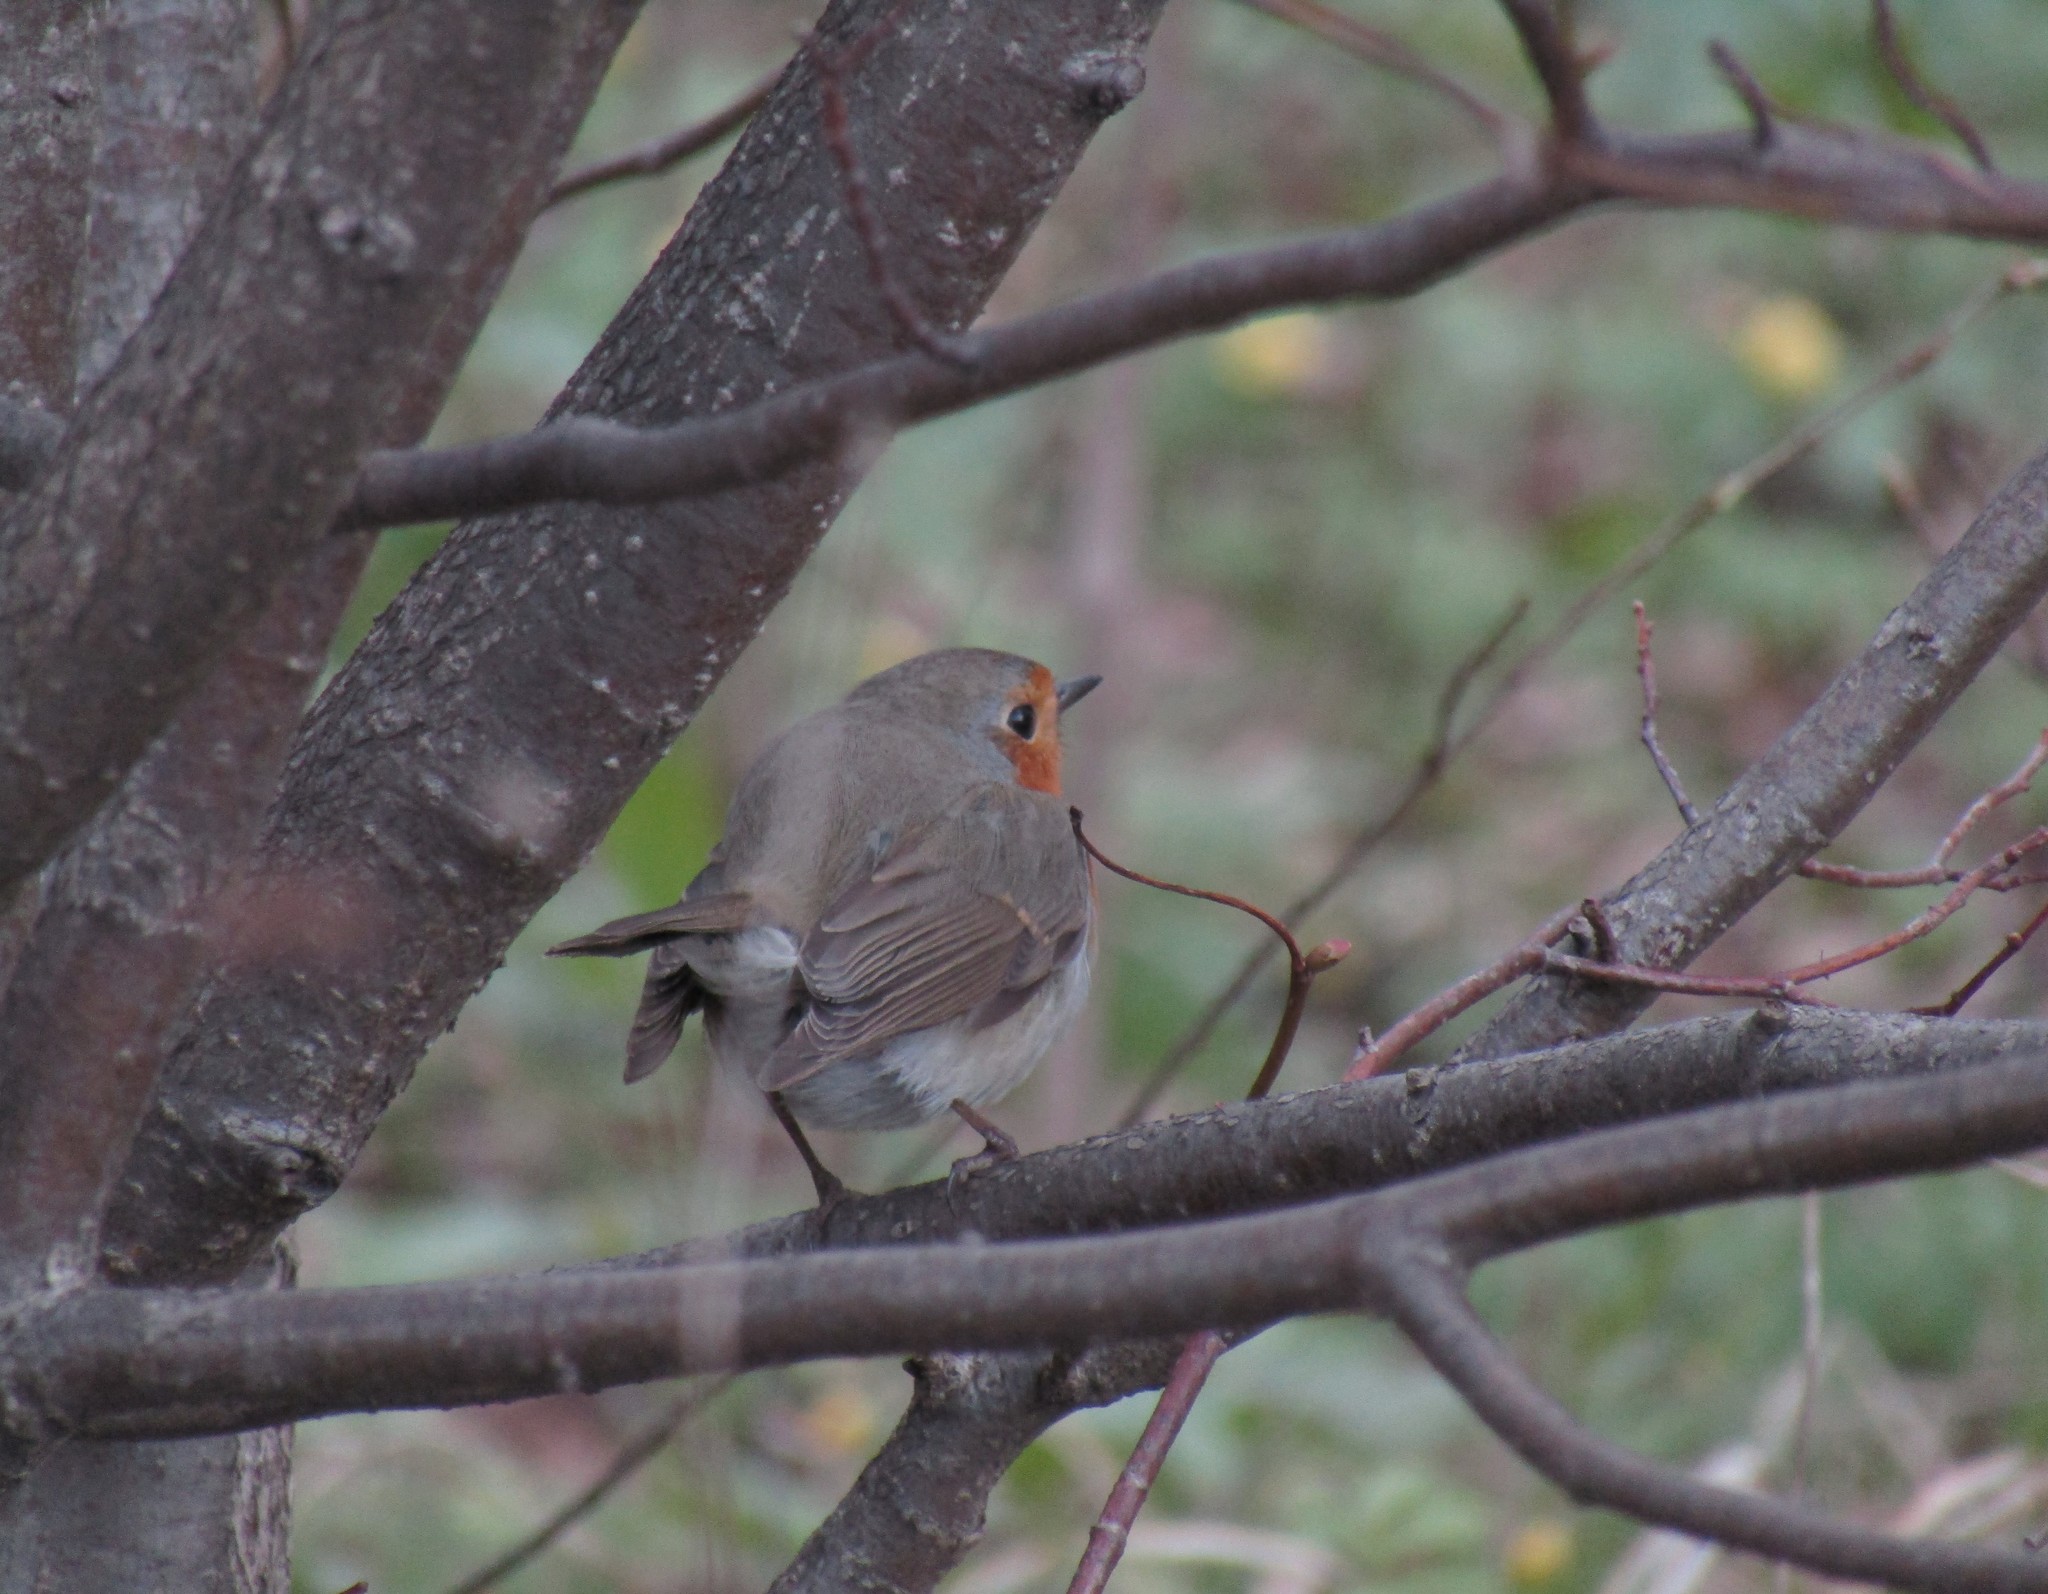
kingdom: Animalia
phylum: Chordata
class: Aves
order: Passeriformes
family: Muscicapidae
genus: Erithacus
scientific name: Erithacus rubecula
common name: European robin
